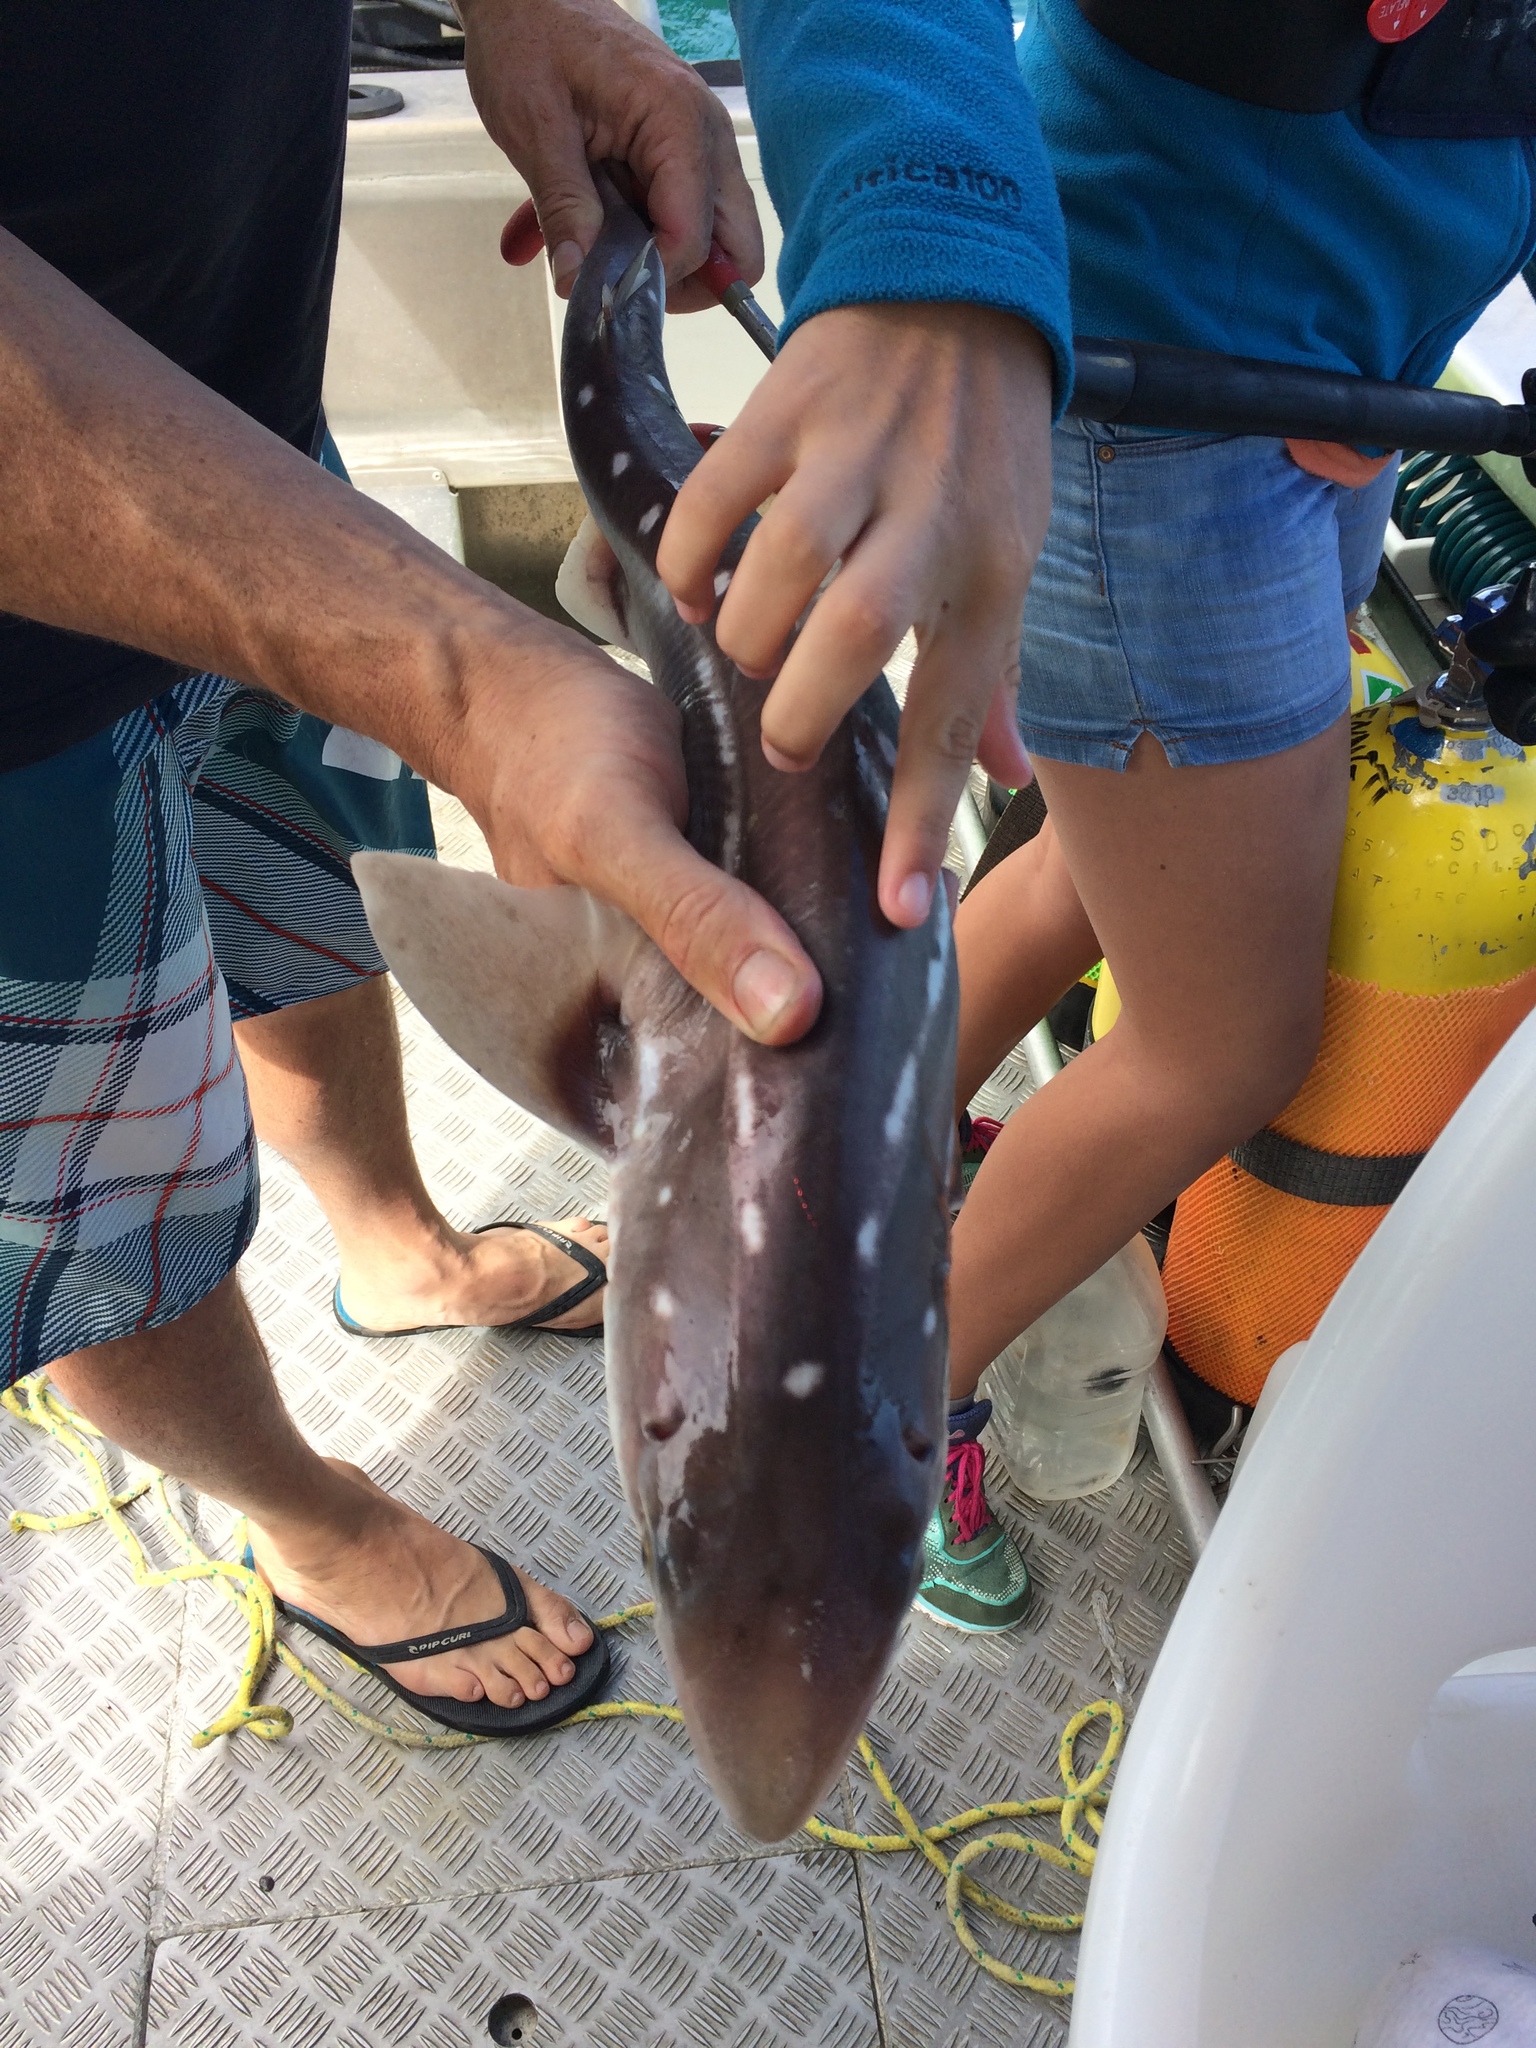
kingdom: Animalia
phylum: Chordata
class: Elasmobranchii
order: Squaliformes
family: Squalidae
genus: Squalus
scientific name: Squalus acanthias
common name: Spurdog
